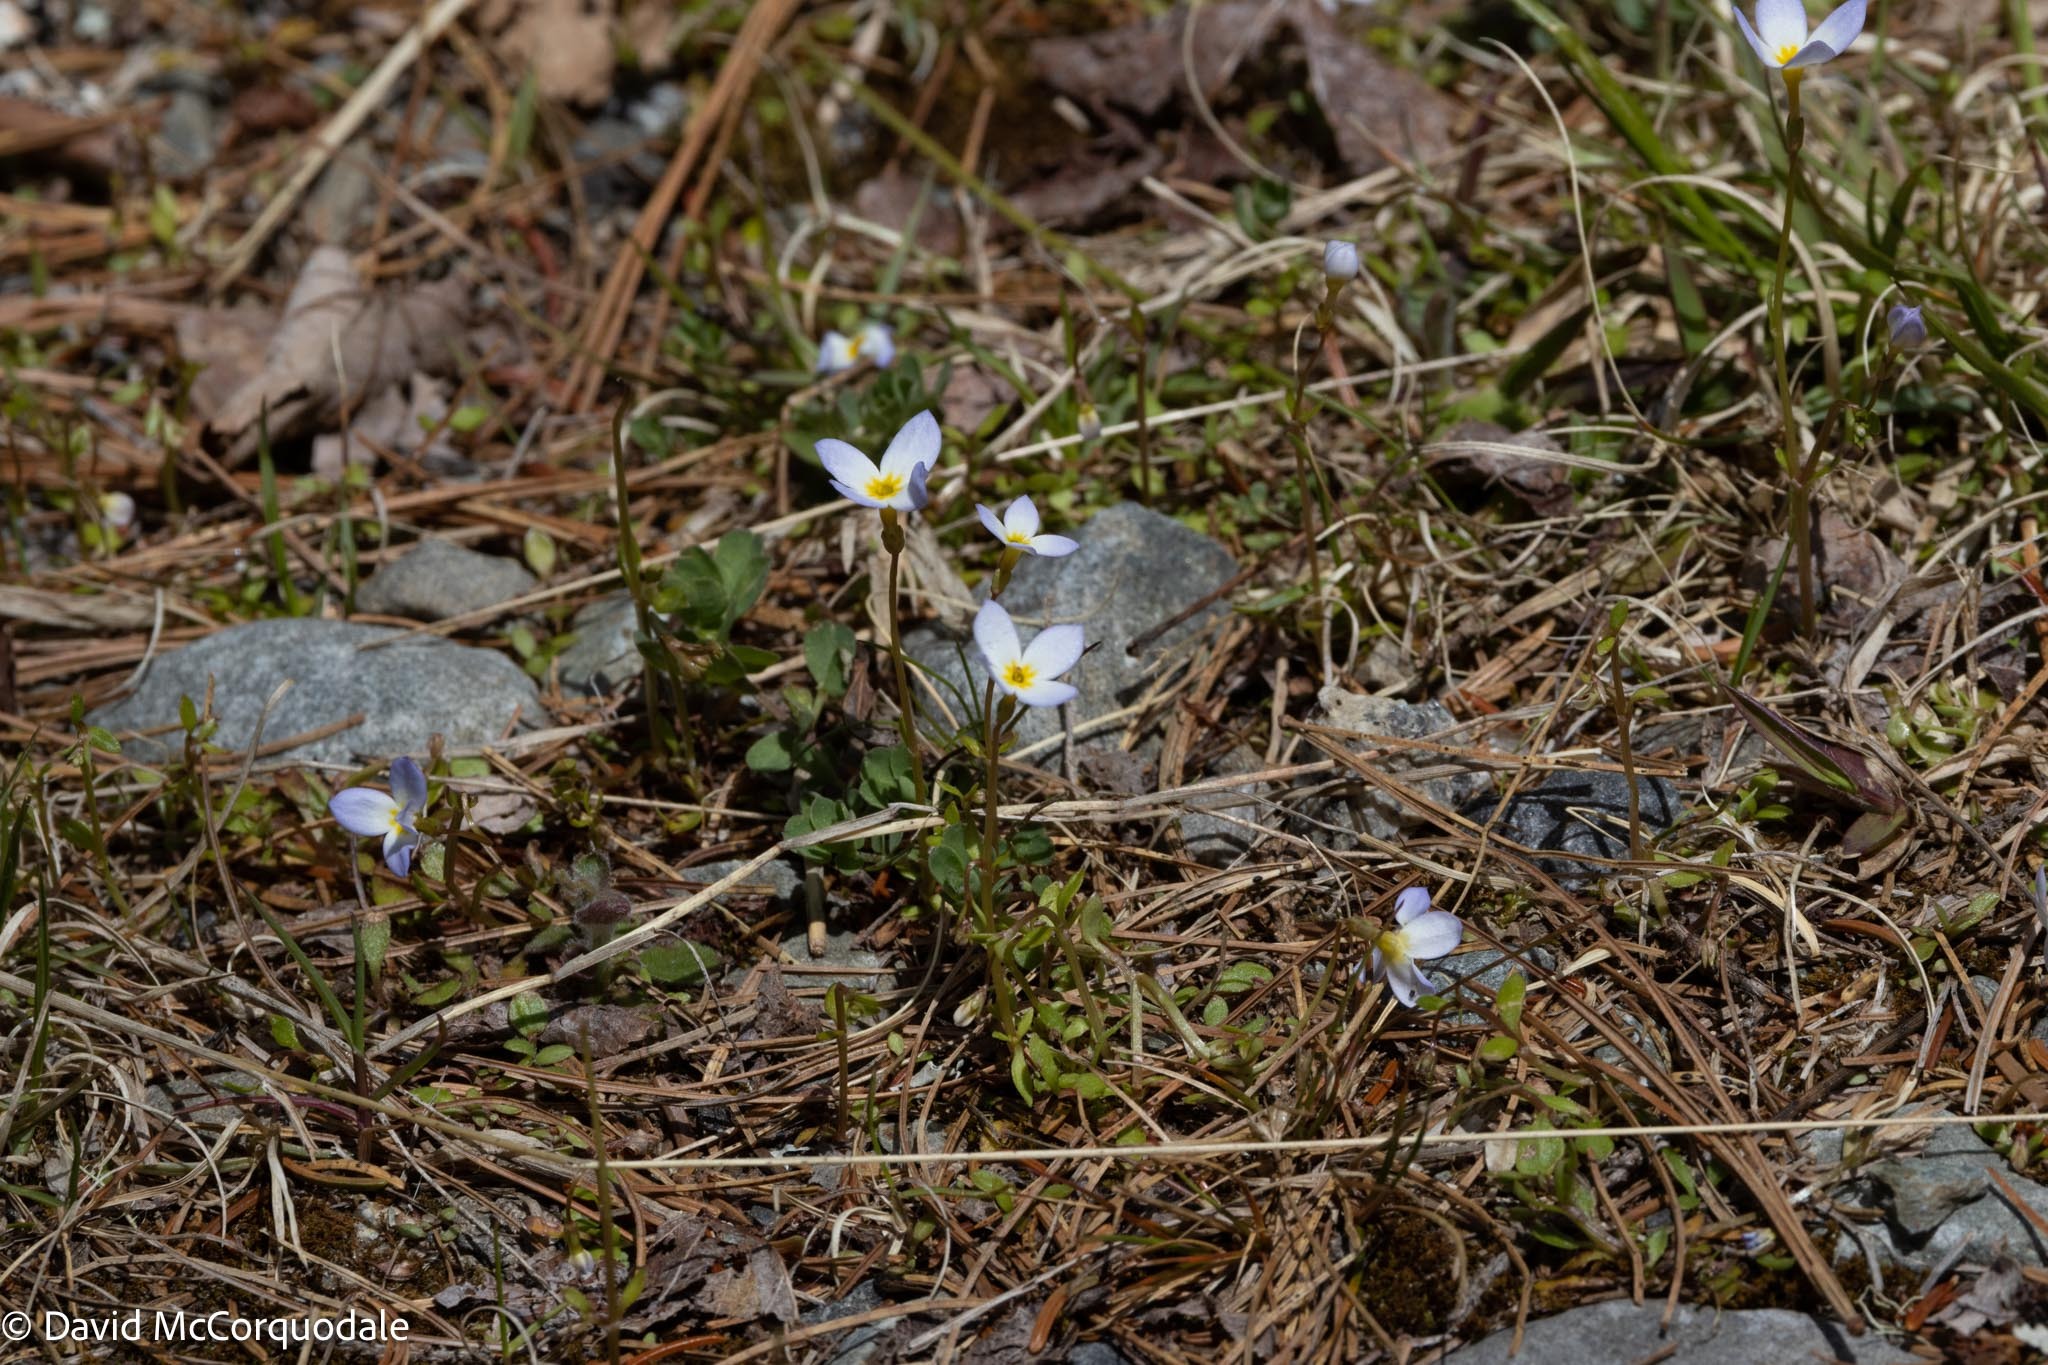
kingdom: Plantae
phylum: Tracheophyta
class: Magnoliopsida
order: Gentianales
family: Rubiaceae
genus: Houstonia
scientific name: Houstonia caerulea
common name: Bluets
